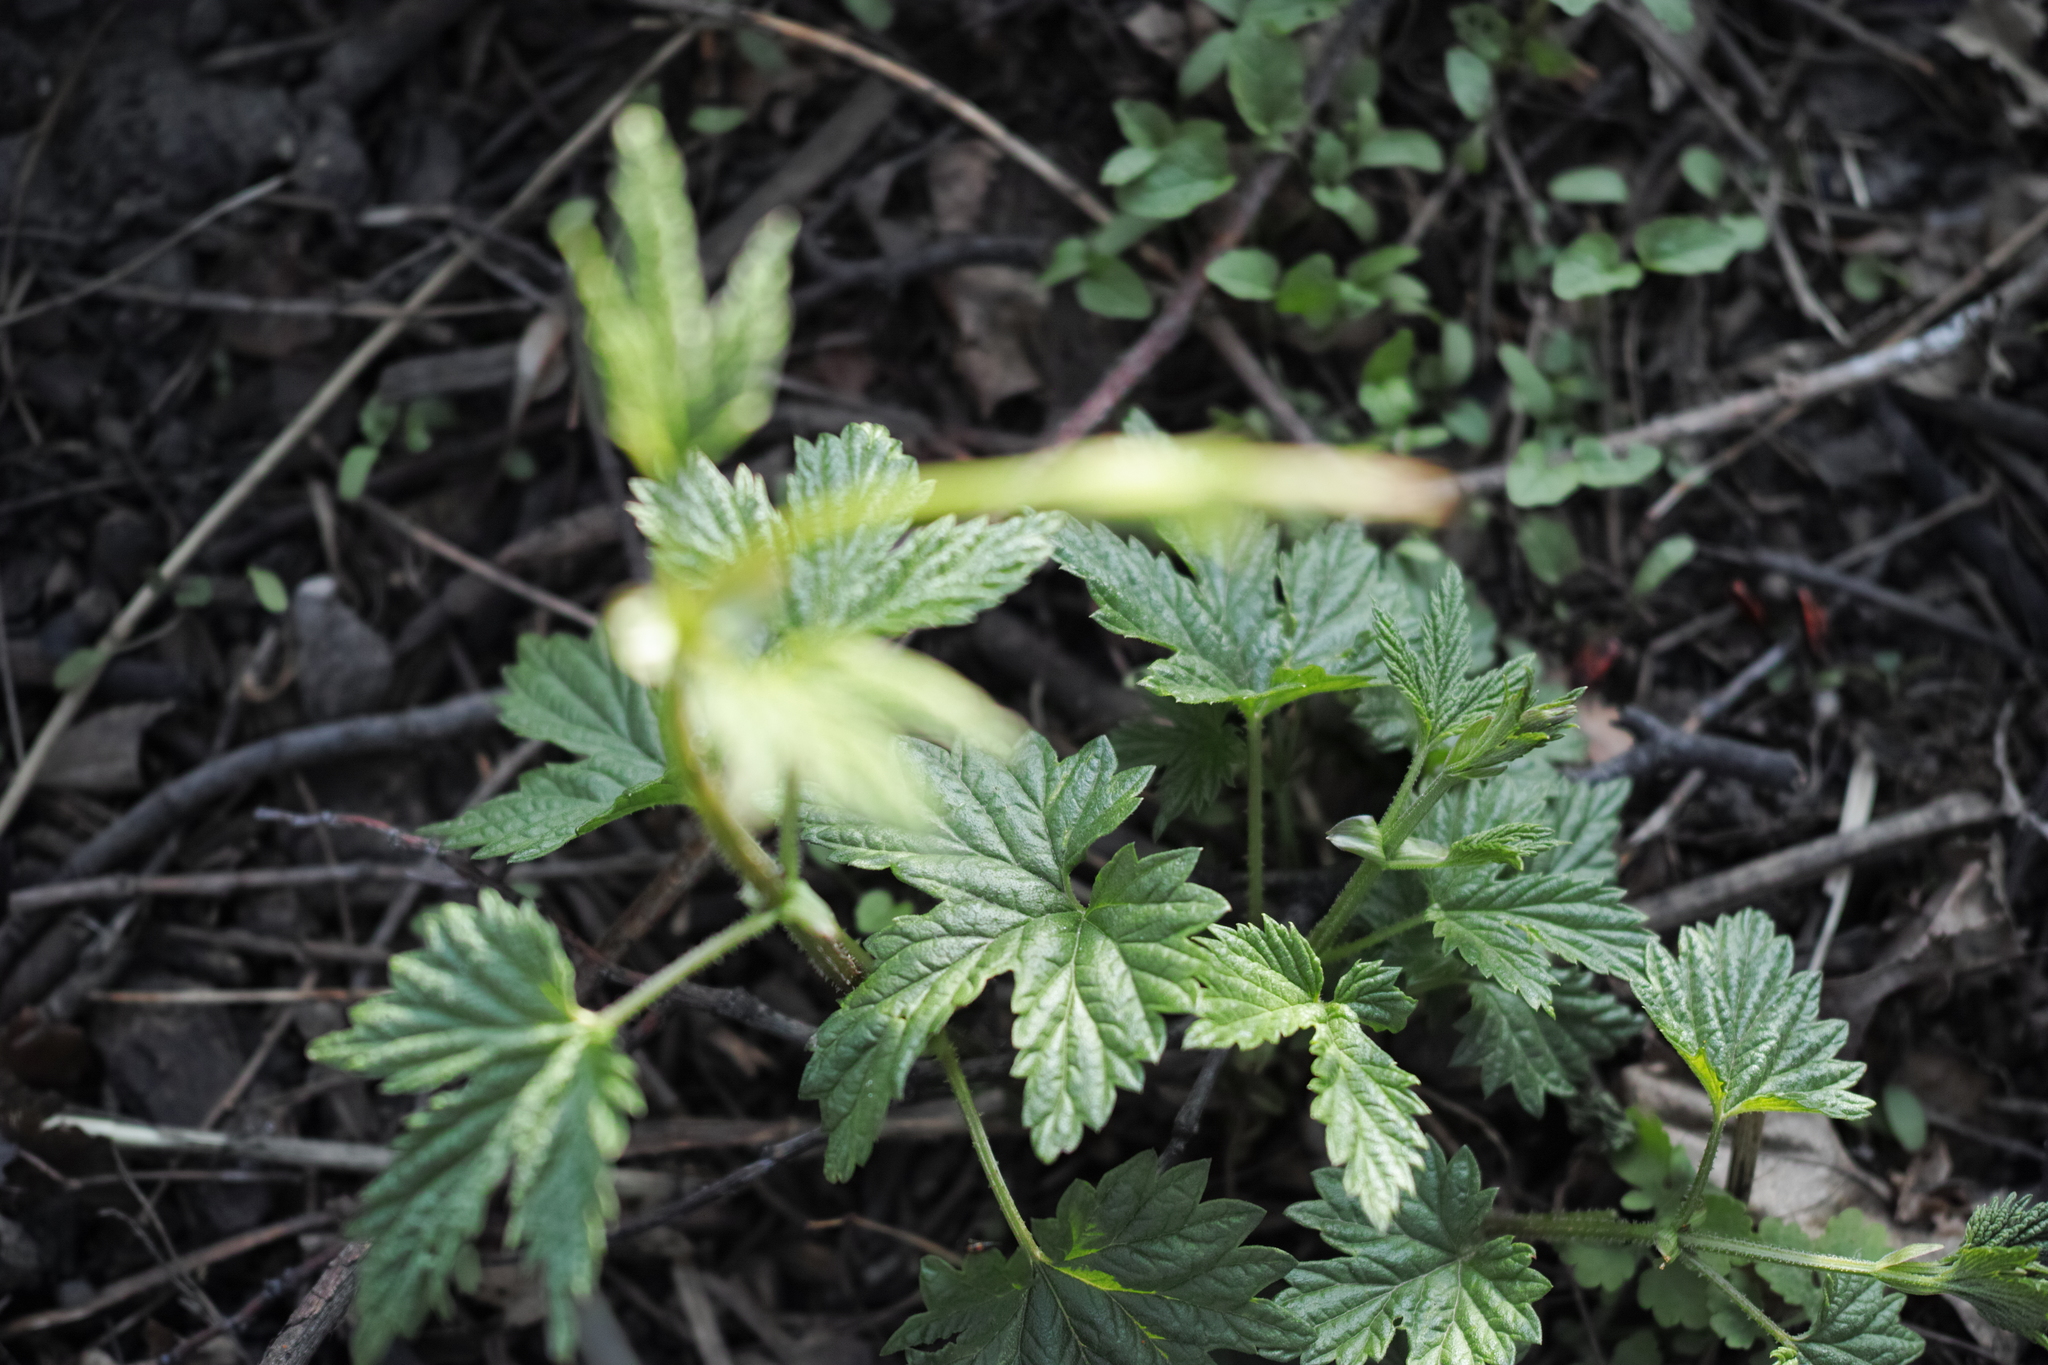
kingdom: Plantae
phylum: Tracheophyta
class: Magnoliopsida
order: Rosales
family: Cannabaceae
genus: Humulus
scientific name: Humulus lupulus
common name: Hop
